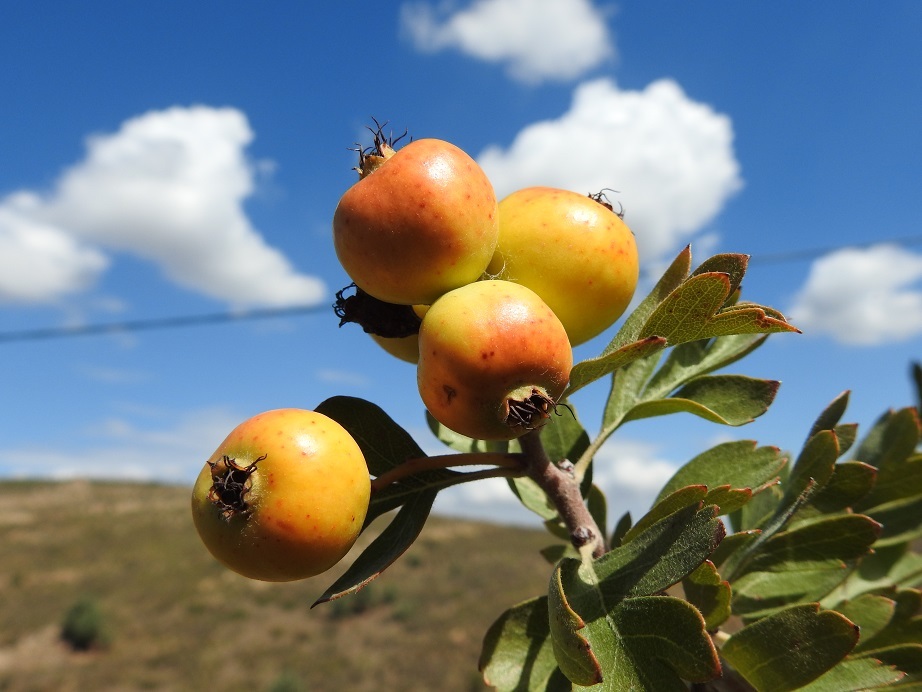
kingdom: Plantae
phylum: Tracheophyta
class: Magnoliopsida
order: Rosales
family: Rosaceae
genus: Crataegus
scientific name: Crataegus azarolus
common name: Azarole
